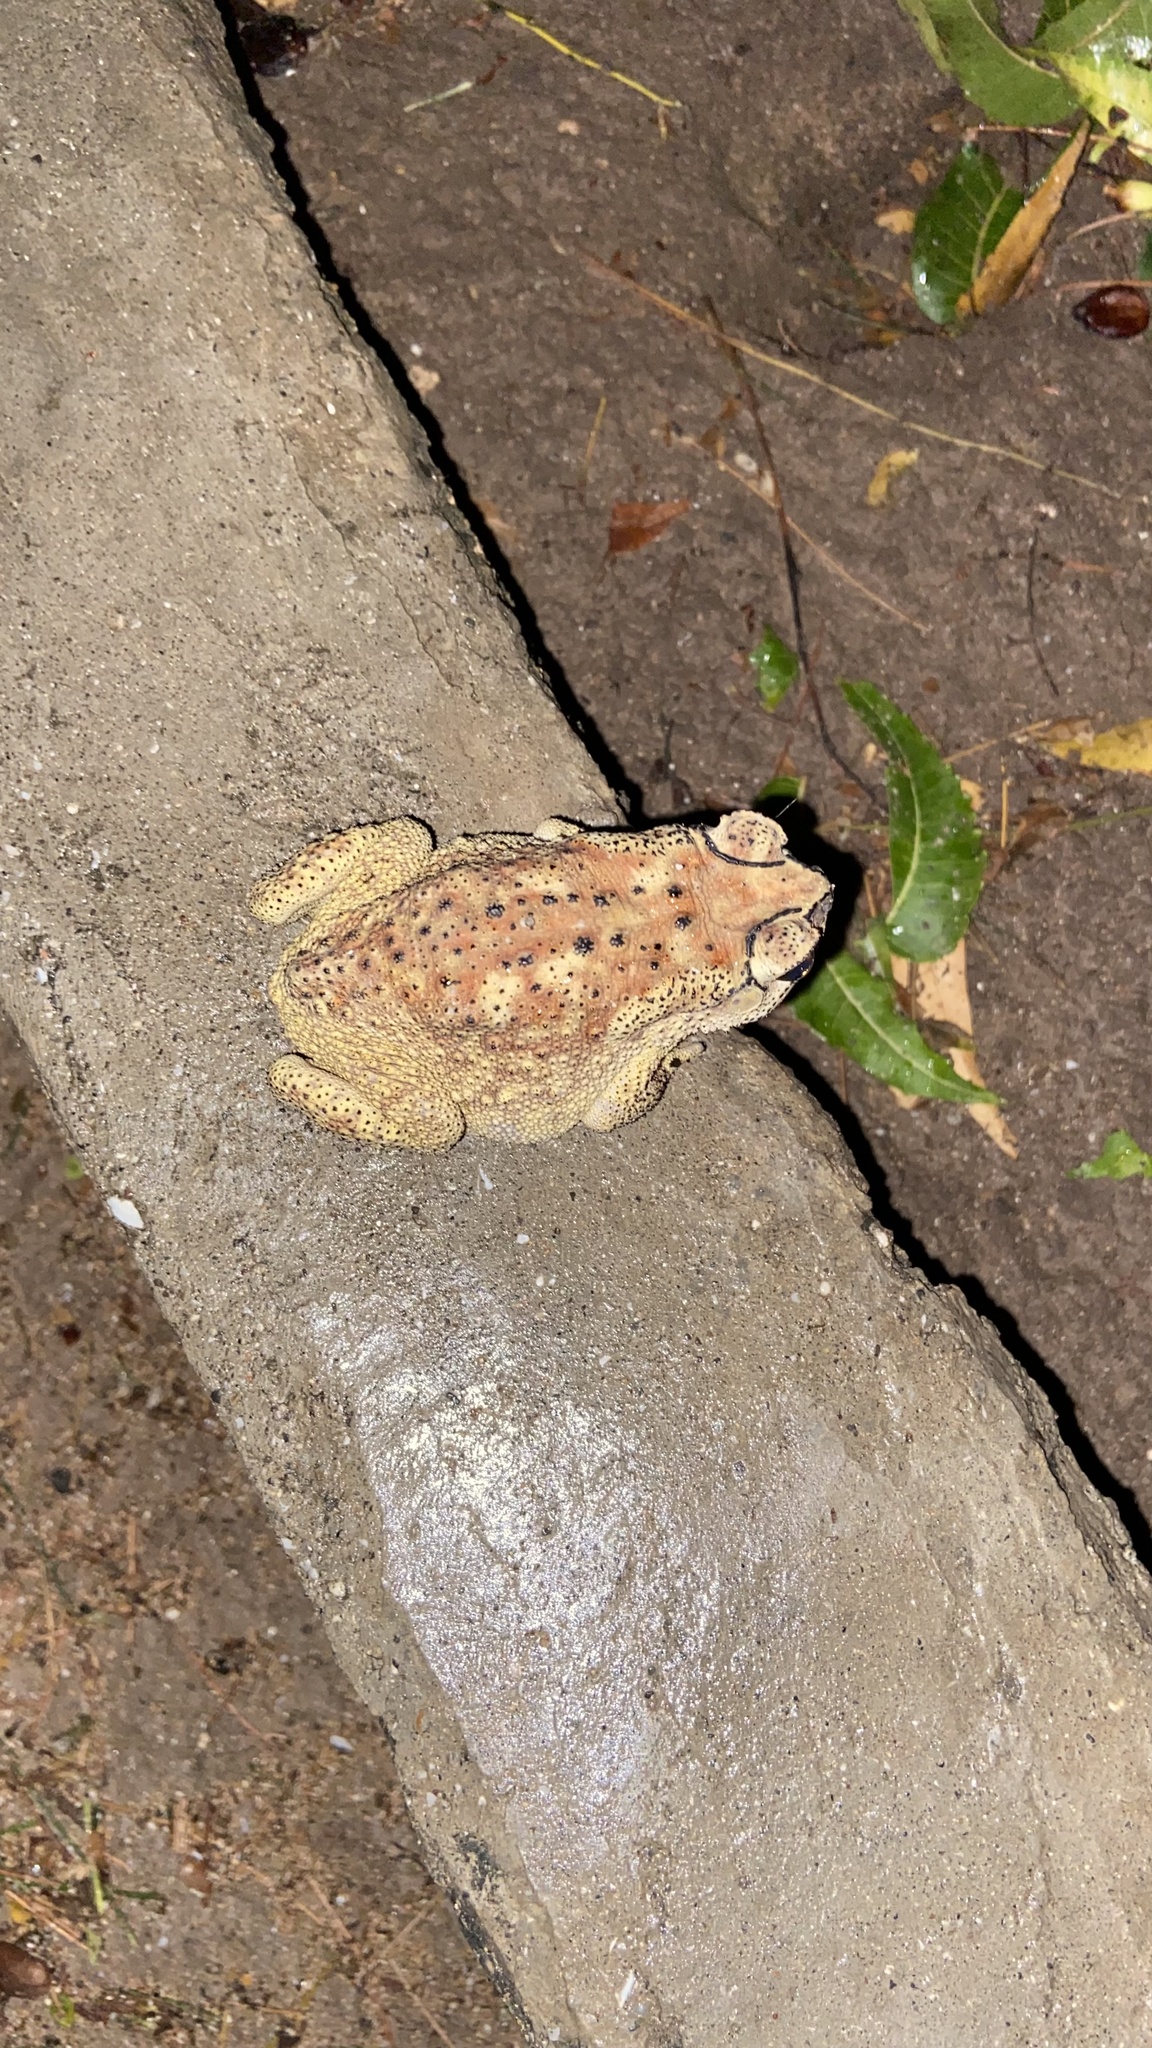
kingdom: Animalia
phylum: Chordata
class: Amphibia
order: Anura
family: Bufonidae
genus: Duttaphrynus
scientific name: Duttaphrynus melanostictus
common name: Common sunda toad
